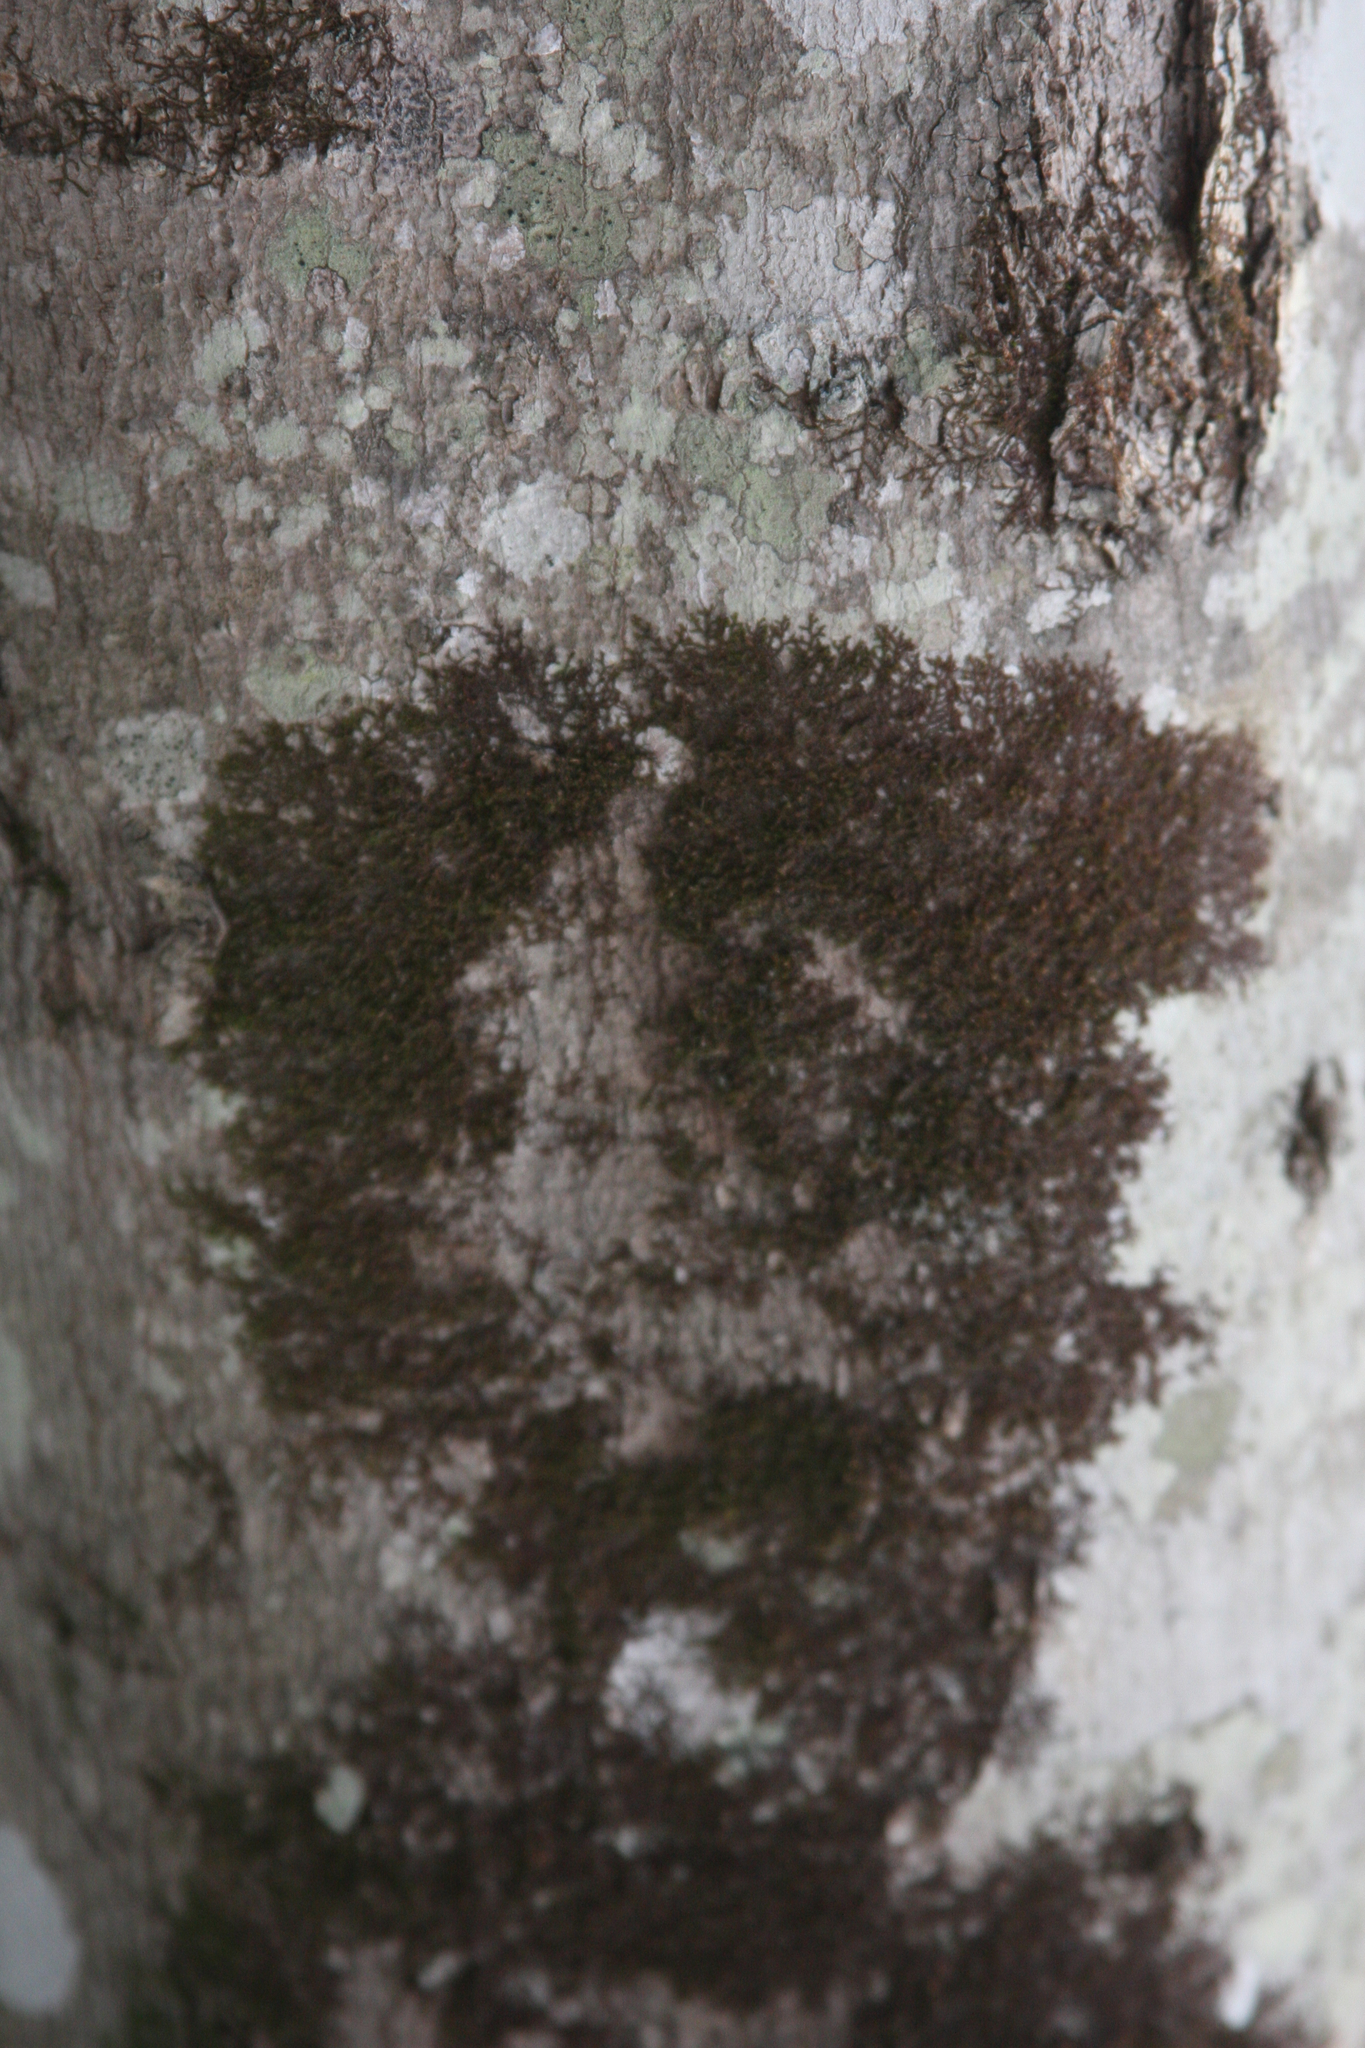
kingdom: Plantae
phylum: Marchantiophyta
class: Jungermanniopsida
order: Porellales
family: Frullaniaceae
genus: Frullania
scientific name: Frullania eboracensis
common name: New york scalewort
